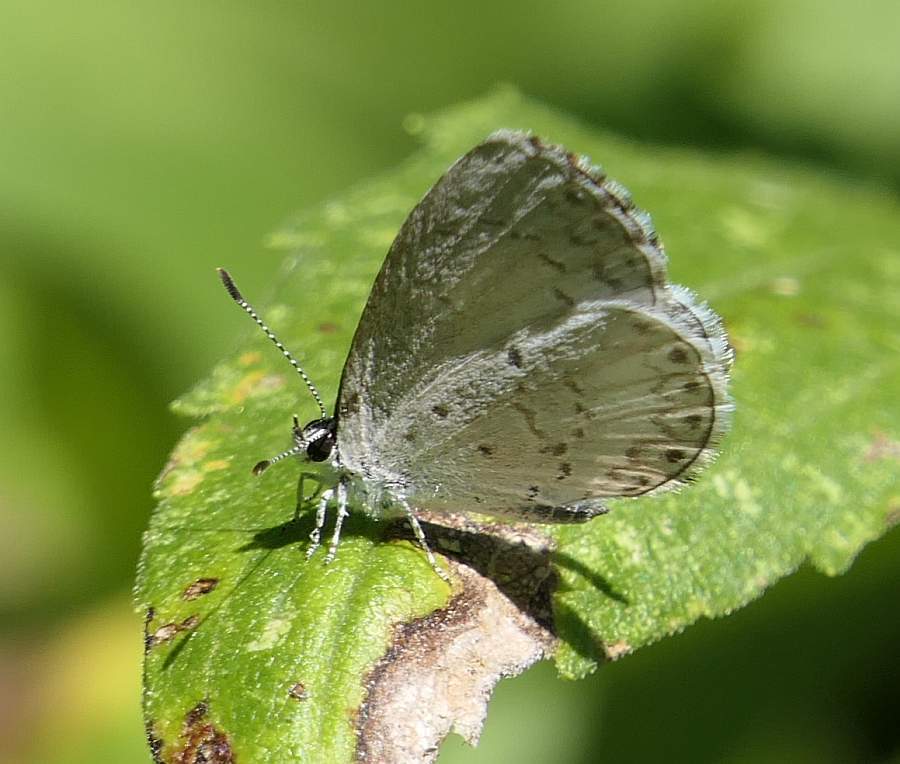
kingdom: Animalia
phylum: Arthropoda
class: Insecta
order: Lepidoptera
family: Lycaenidae
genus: Celastrina
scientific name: Celastrina lucia
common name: Lucia azure
